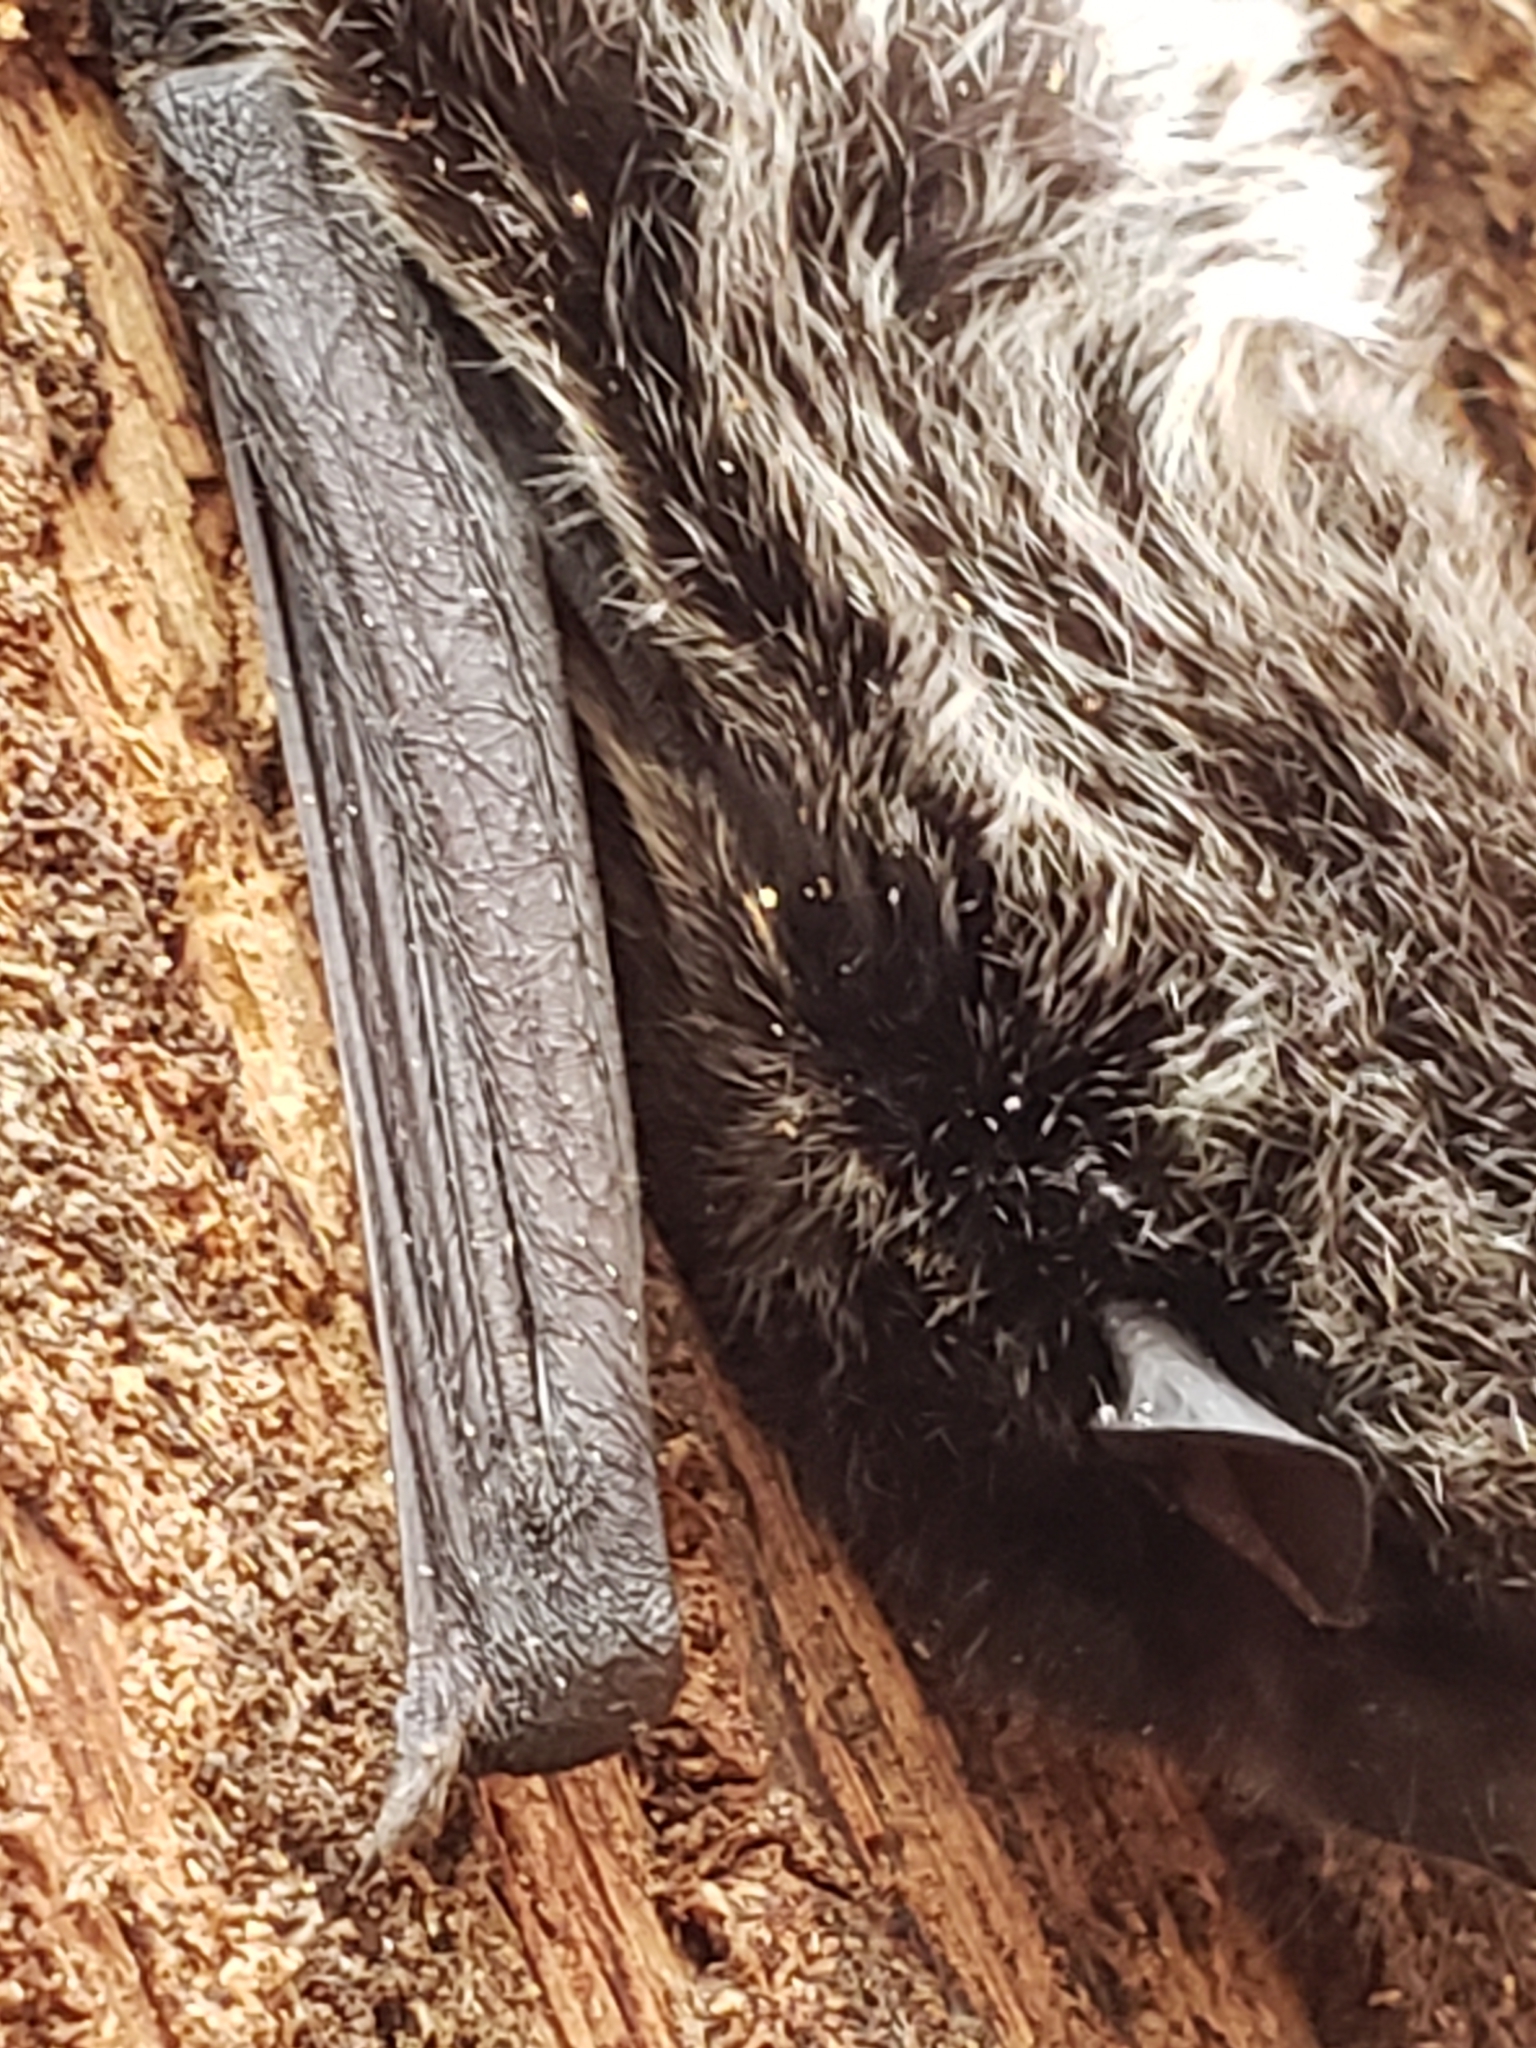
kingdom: Animalia
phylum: Chordata
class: Mammalia
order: Chiroptera
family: Vespertilionidae
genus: Lasionycteris
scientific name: Lasionycteris noctivagans
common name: Silver-haired bat
